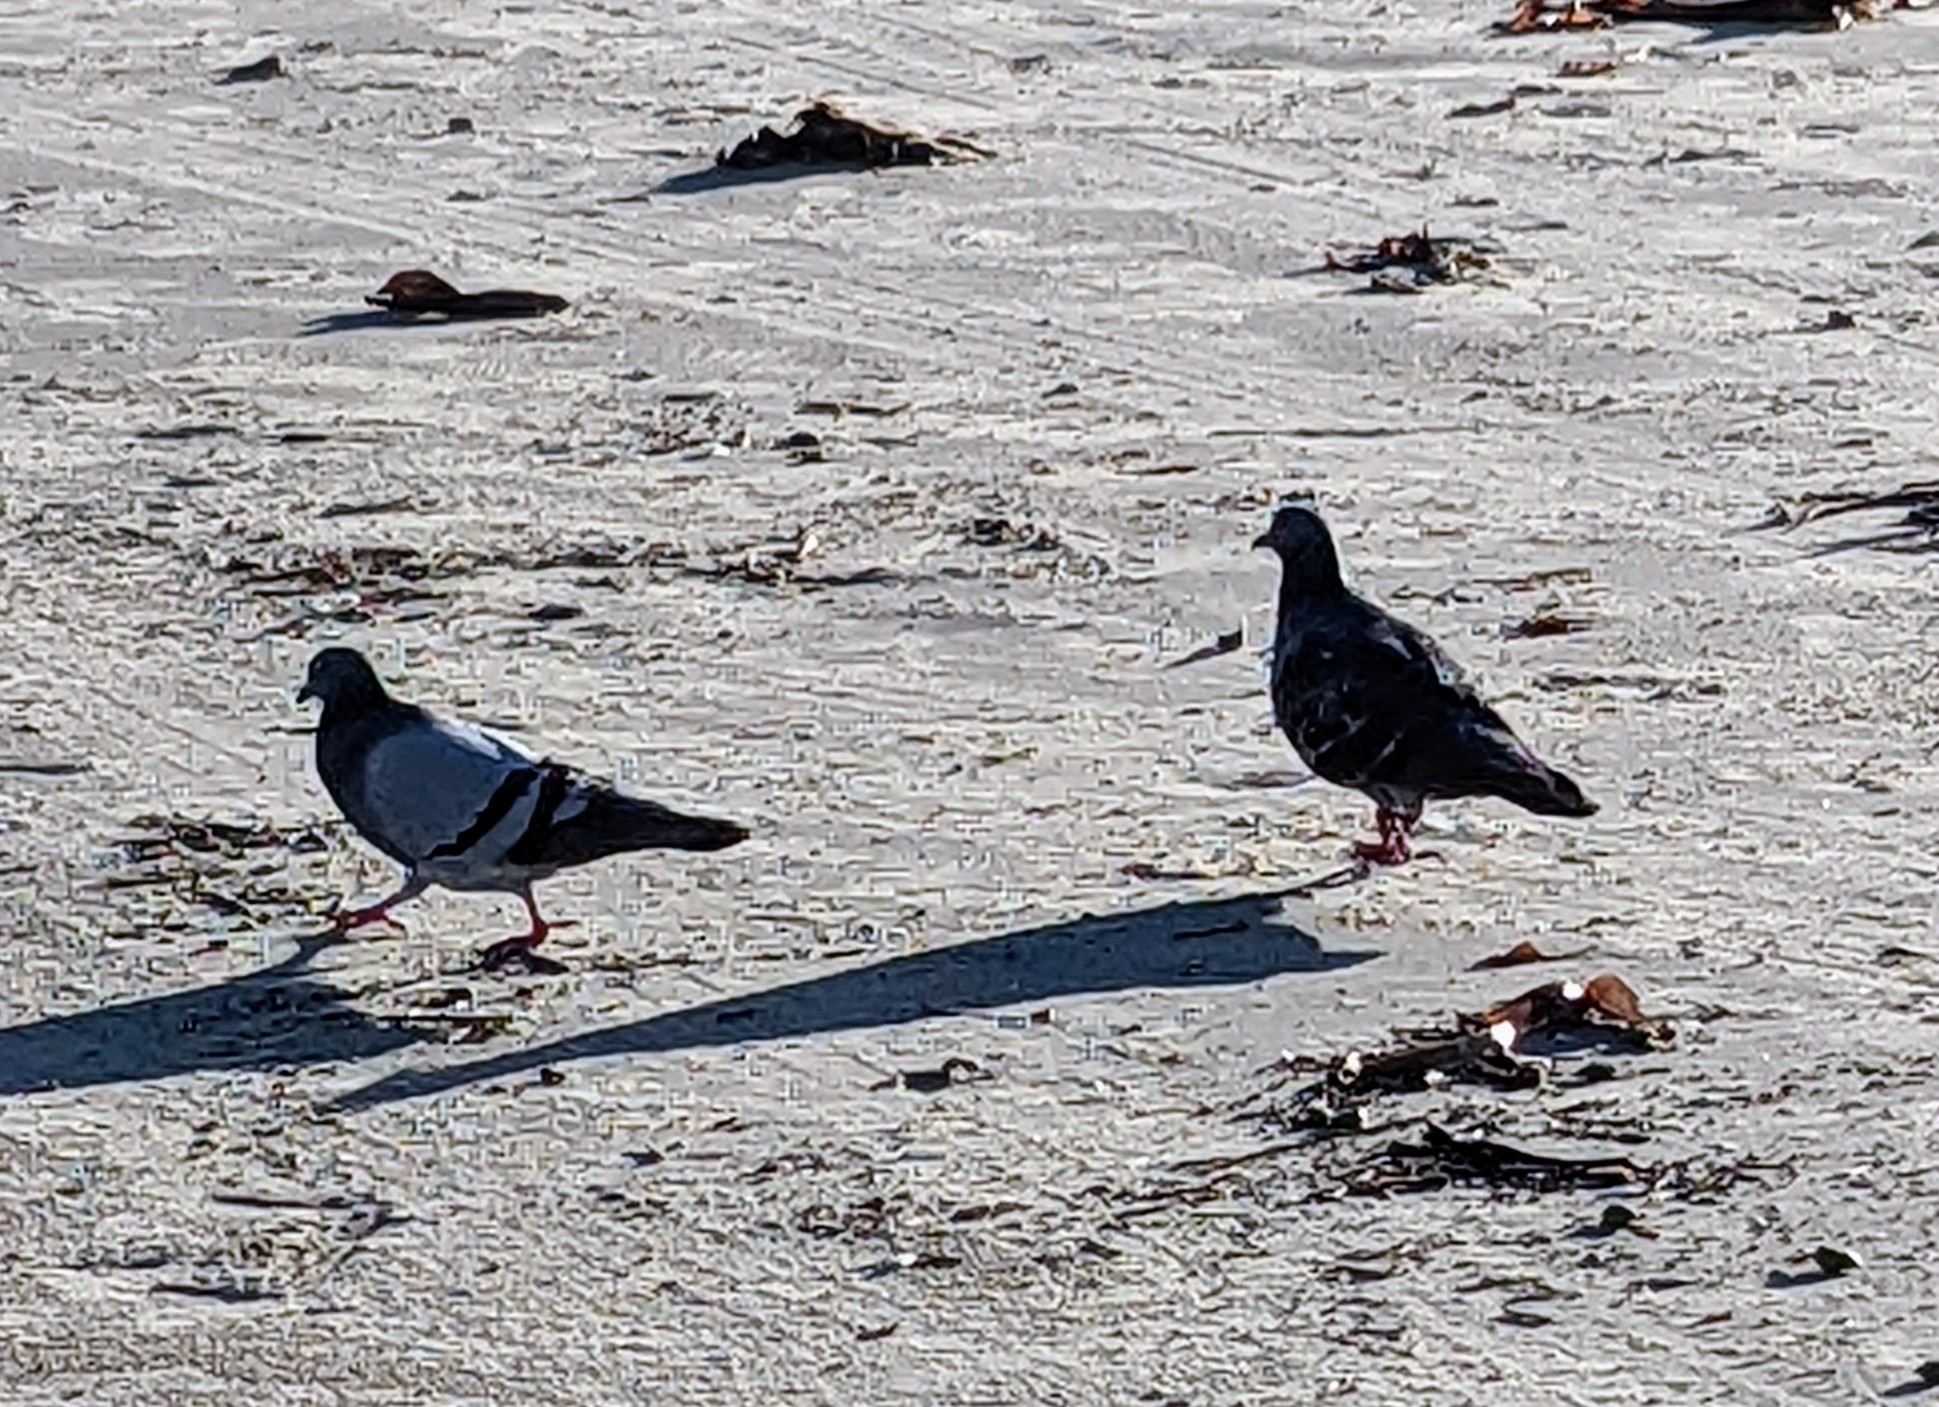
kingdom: Animalia
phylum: Chordata
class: Aves
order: Columbiformes
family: Columbidae
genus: Columba
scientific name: Columba livia
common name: Rock pigeon
